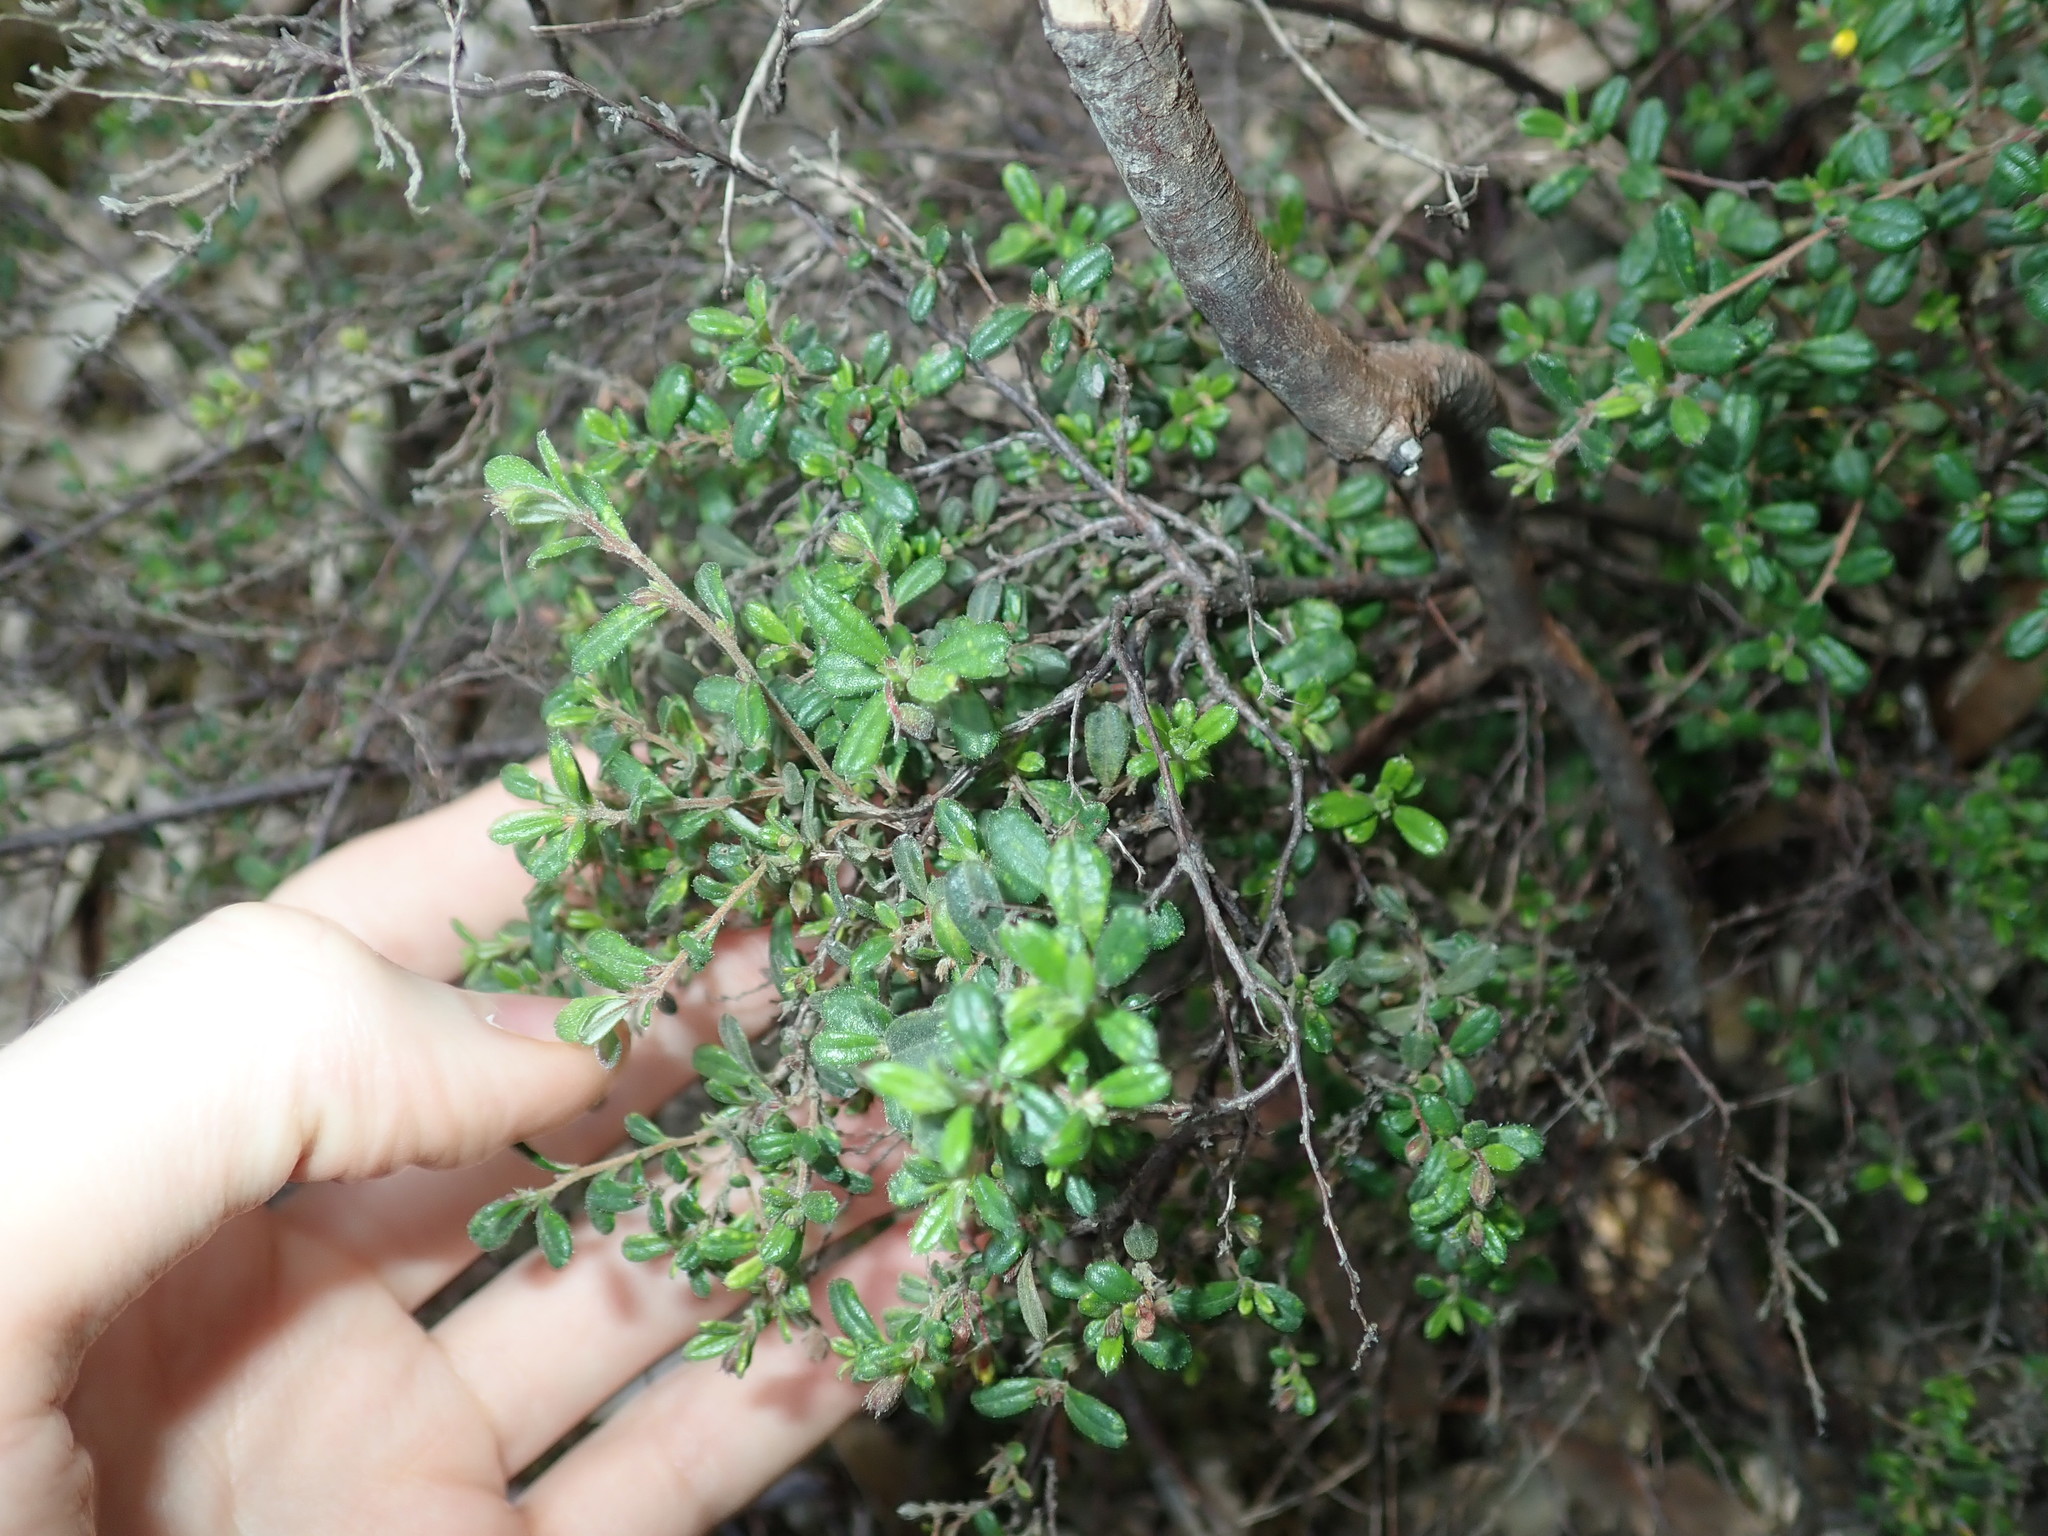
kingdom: Plantae
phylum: Tracheophyta
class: Magnoliopsida
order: Dilleniales
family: Dilleniaceae
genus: Hibbertia
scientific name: Hibbertia aspera
